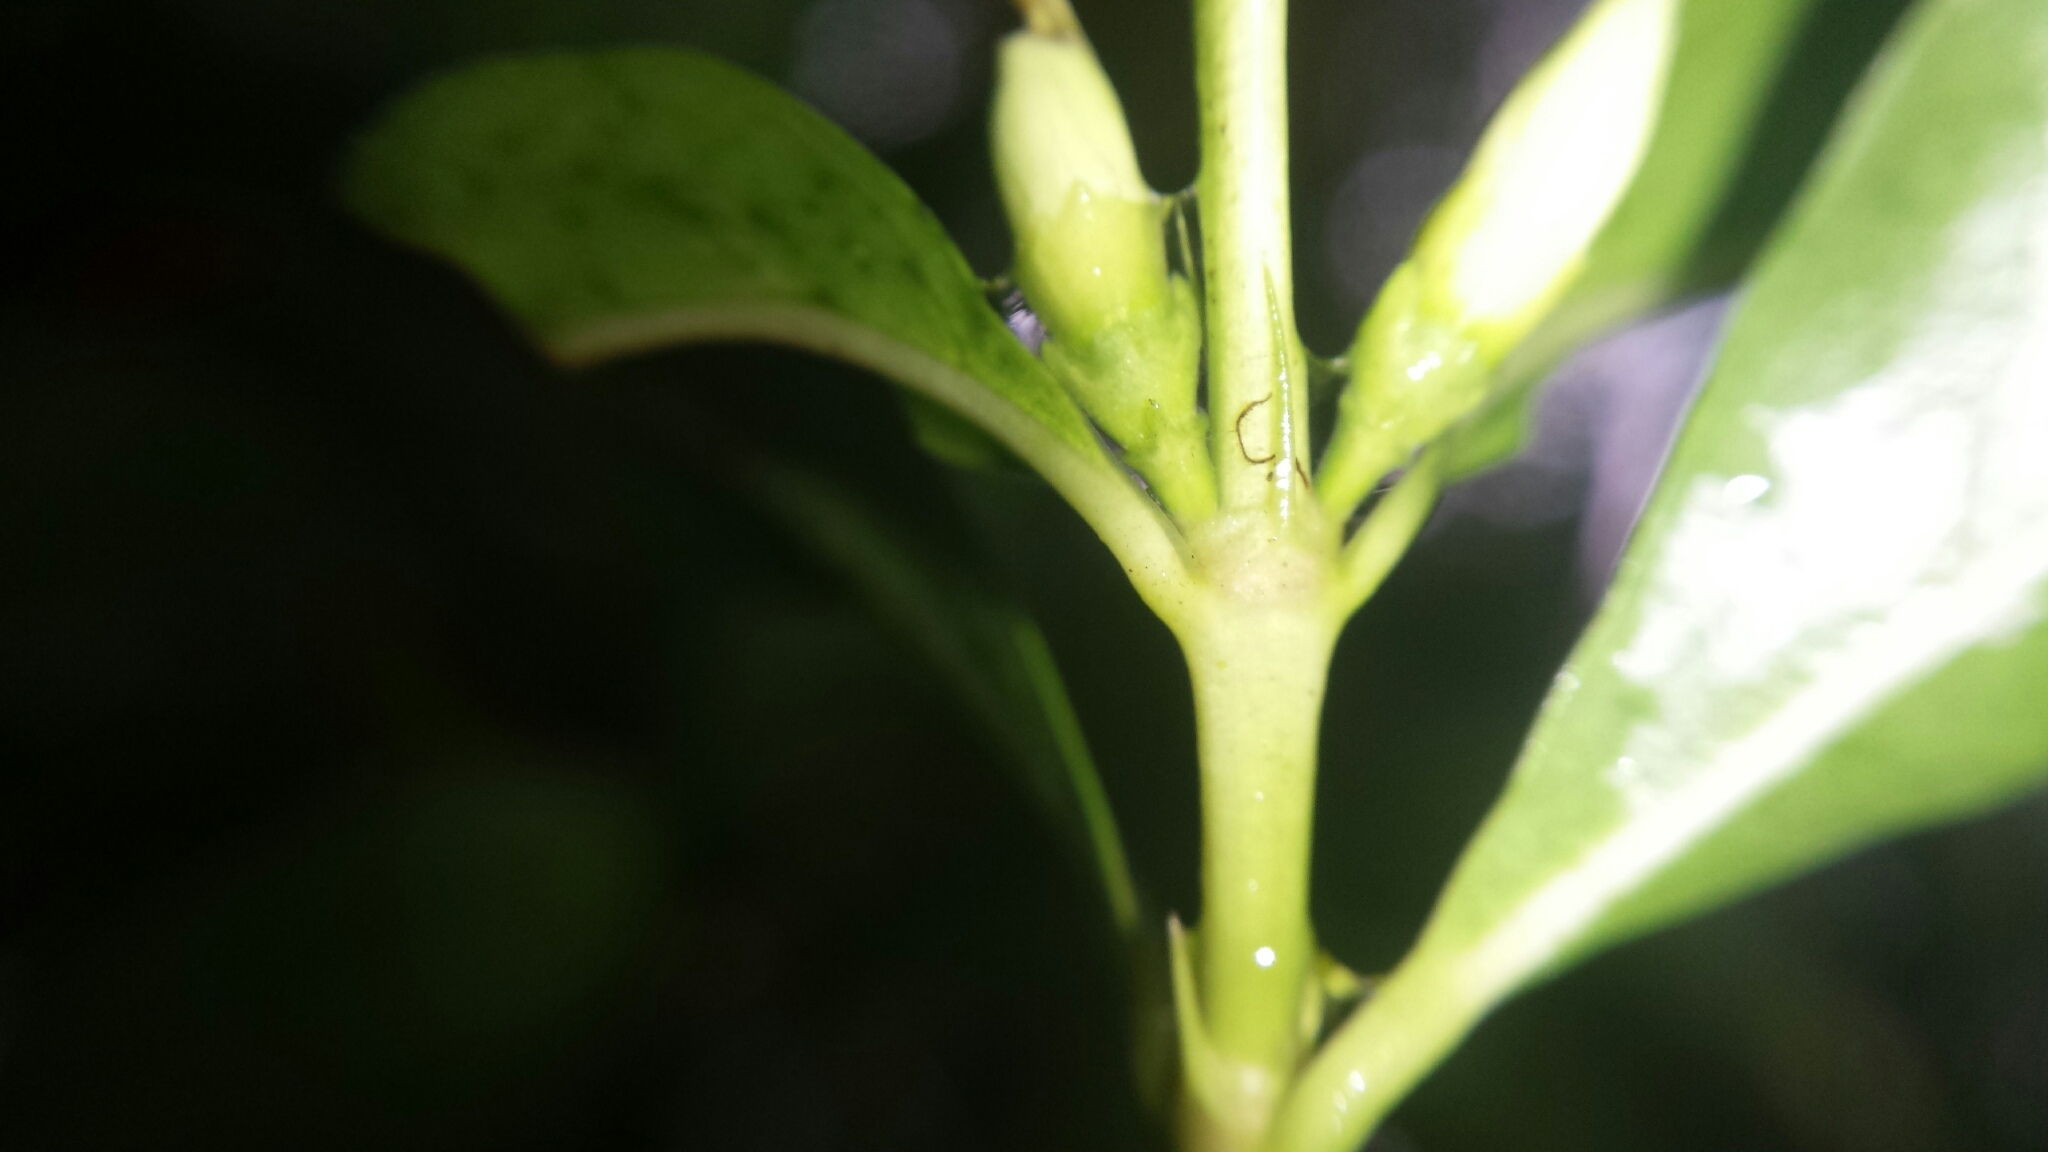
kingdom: Plantae
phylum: Tracheophyta
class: Magnoliopsida
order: Gentianales
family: Rubiaceae
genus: Tricalysia
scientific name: Tricalysia analamazaotrensis
